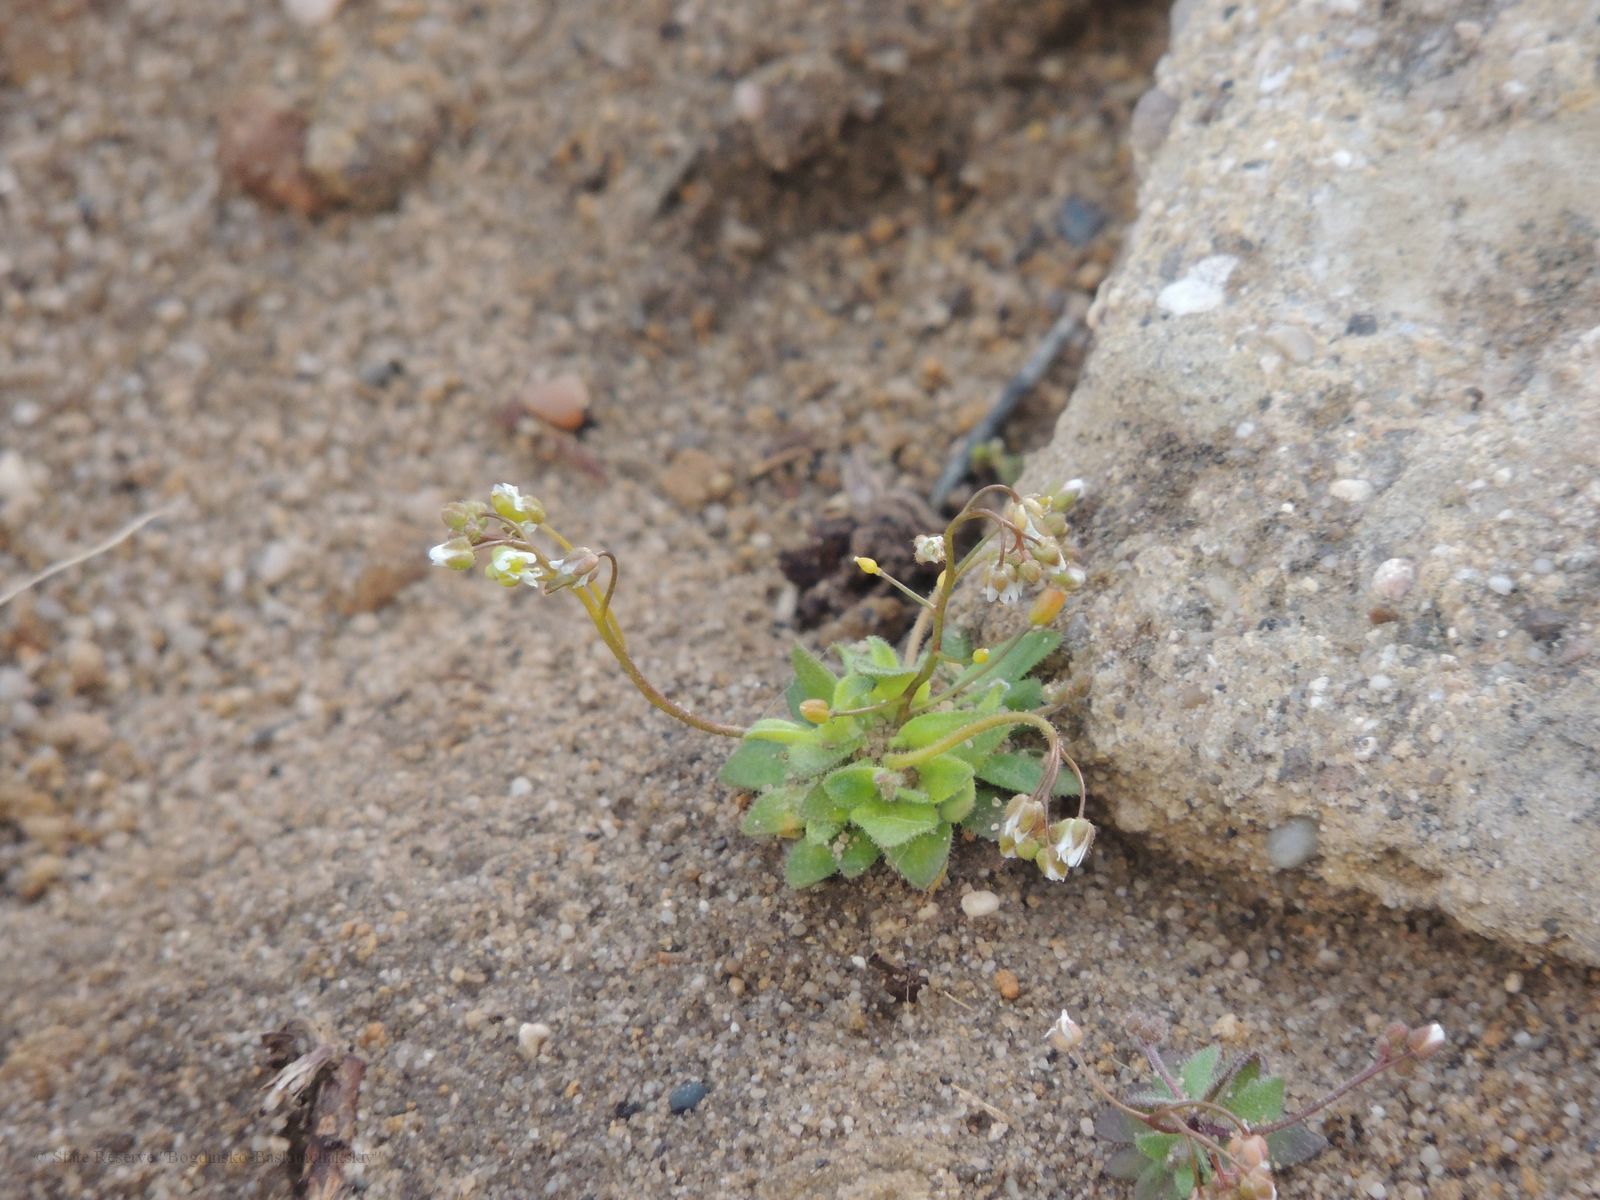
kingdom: Plantae
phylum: Tracheophyta
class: Magnoliopsida
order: Brassicales
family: Brassicaceae
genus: Draba
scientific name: Draba verna
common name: Spring draba
